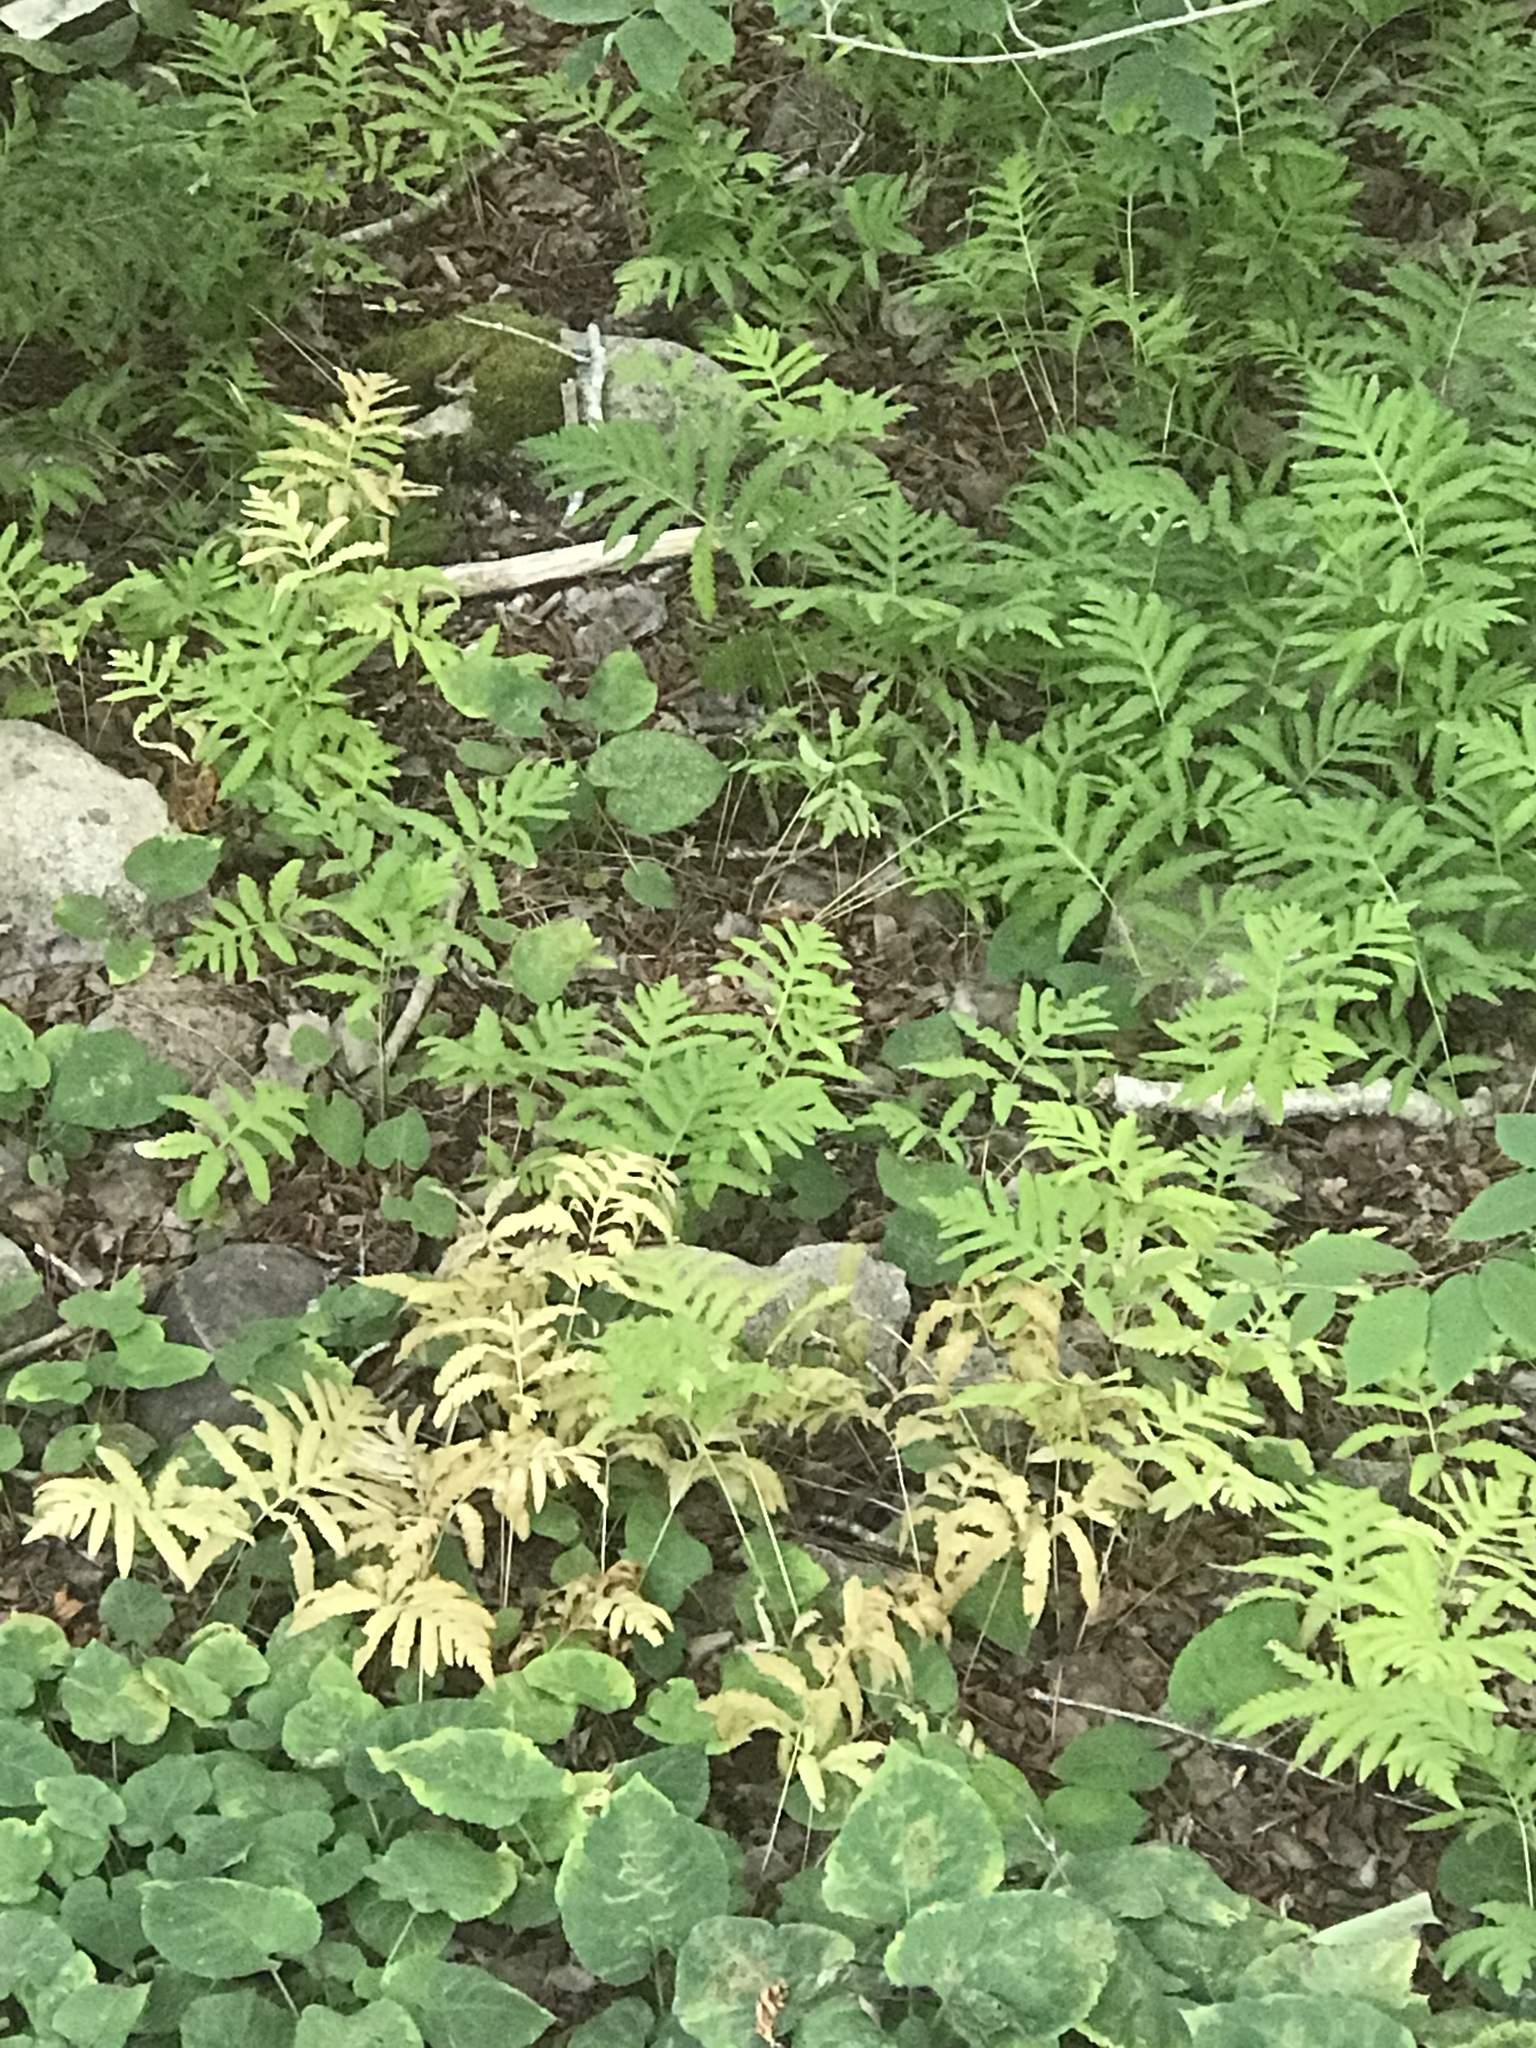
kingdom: Plantae
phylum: Tracheophyta
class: Polypodiopsida
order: Polypodiales
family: Onocleaceae
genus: Onoclea
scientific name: Onoclea sensibilis
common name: Sensitive fern
